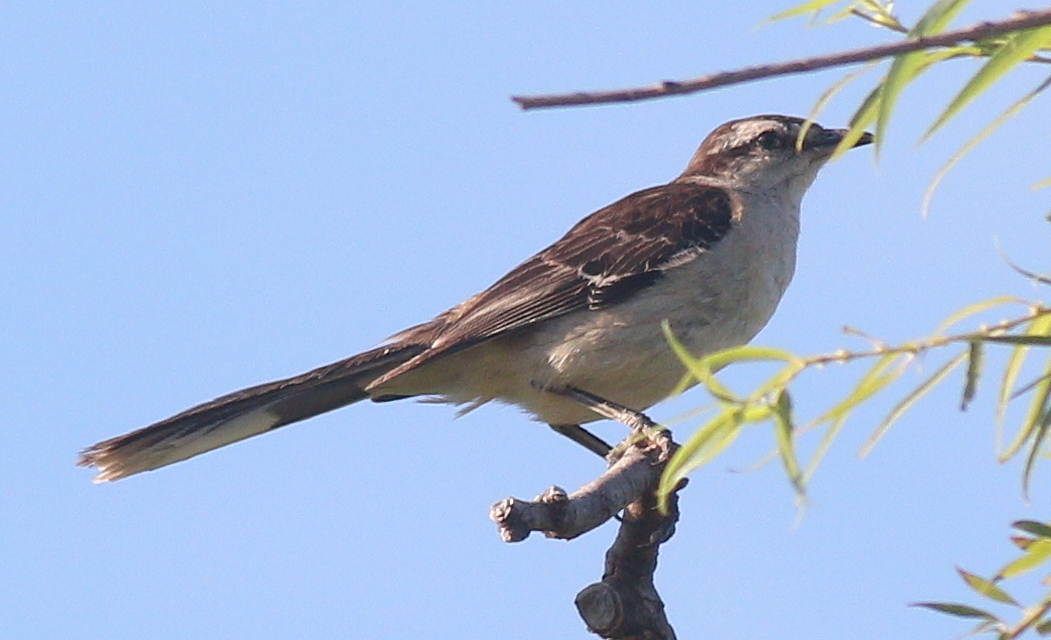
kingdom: Animalia
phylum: Chordata
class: Aves
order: Passeriformes
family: Mimidae
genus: Mimus
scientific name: Mimus saturninus
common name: Chalk-browed mockingbird
